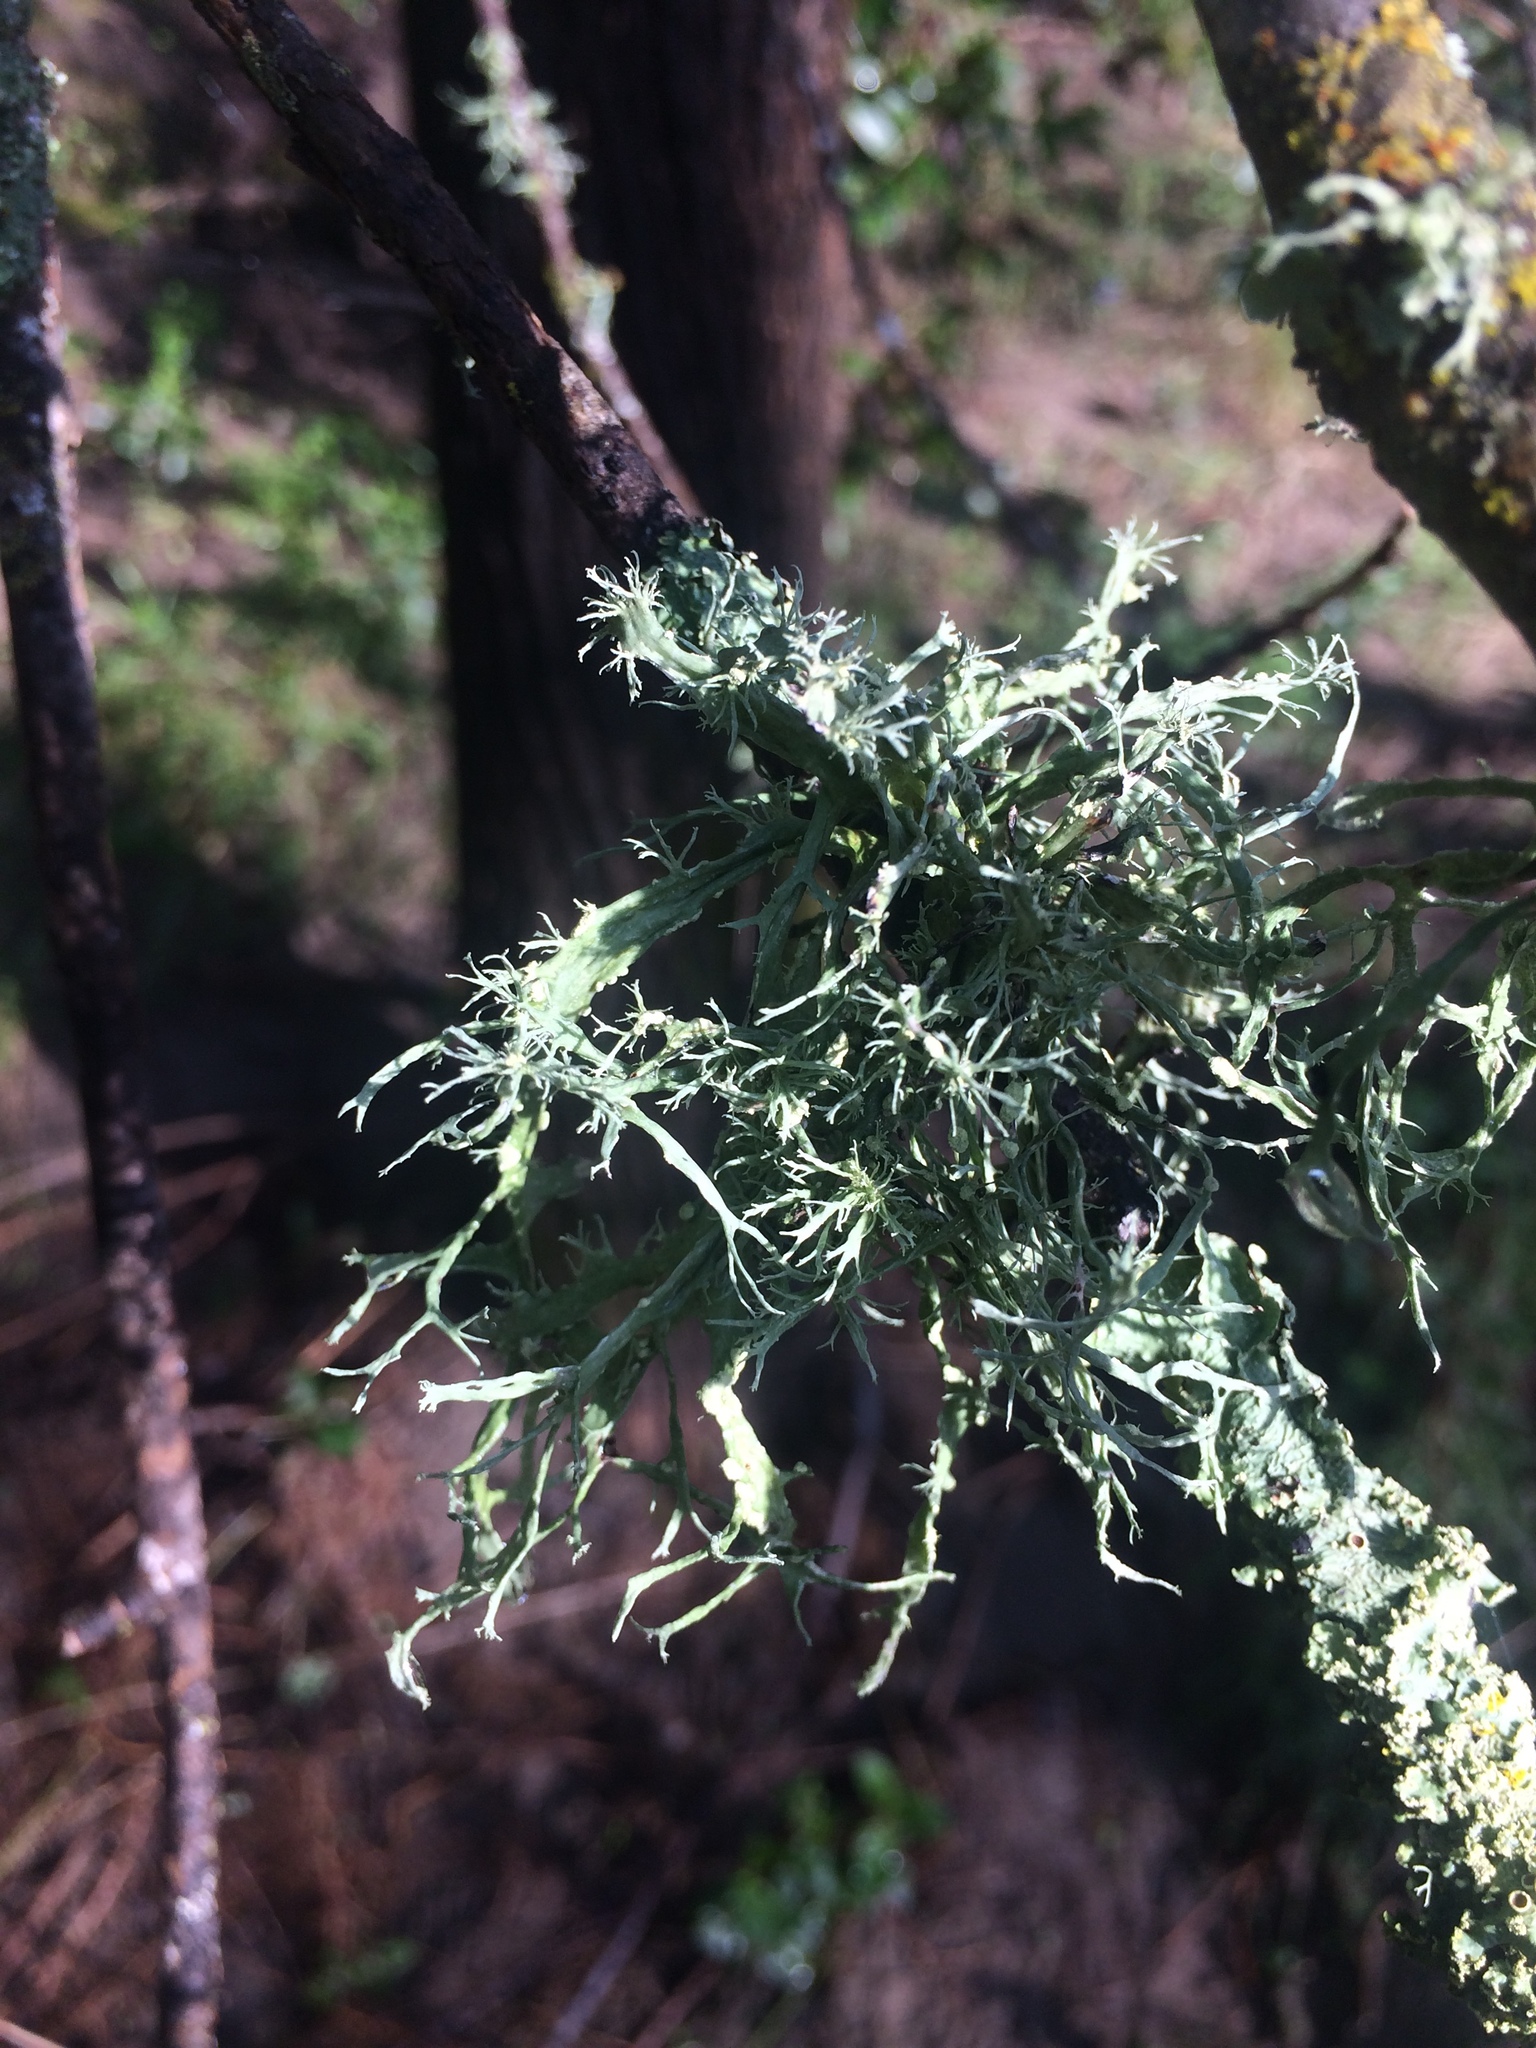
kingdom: Fungi
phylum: Ascomycota
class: Lecanoromycetes
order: Lecanorales
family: Ramalinaceae
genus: Ramalina
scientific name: Ramalina farinacea
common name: Farinose cartilage lichen
